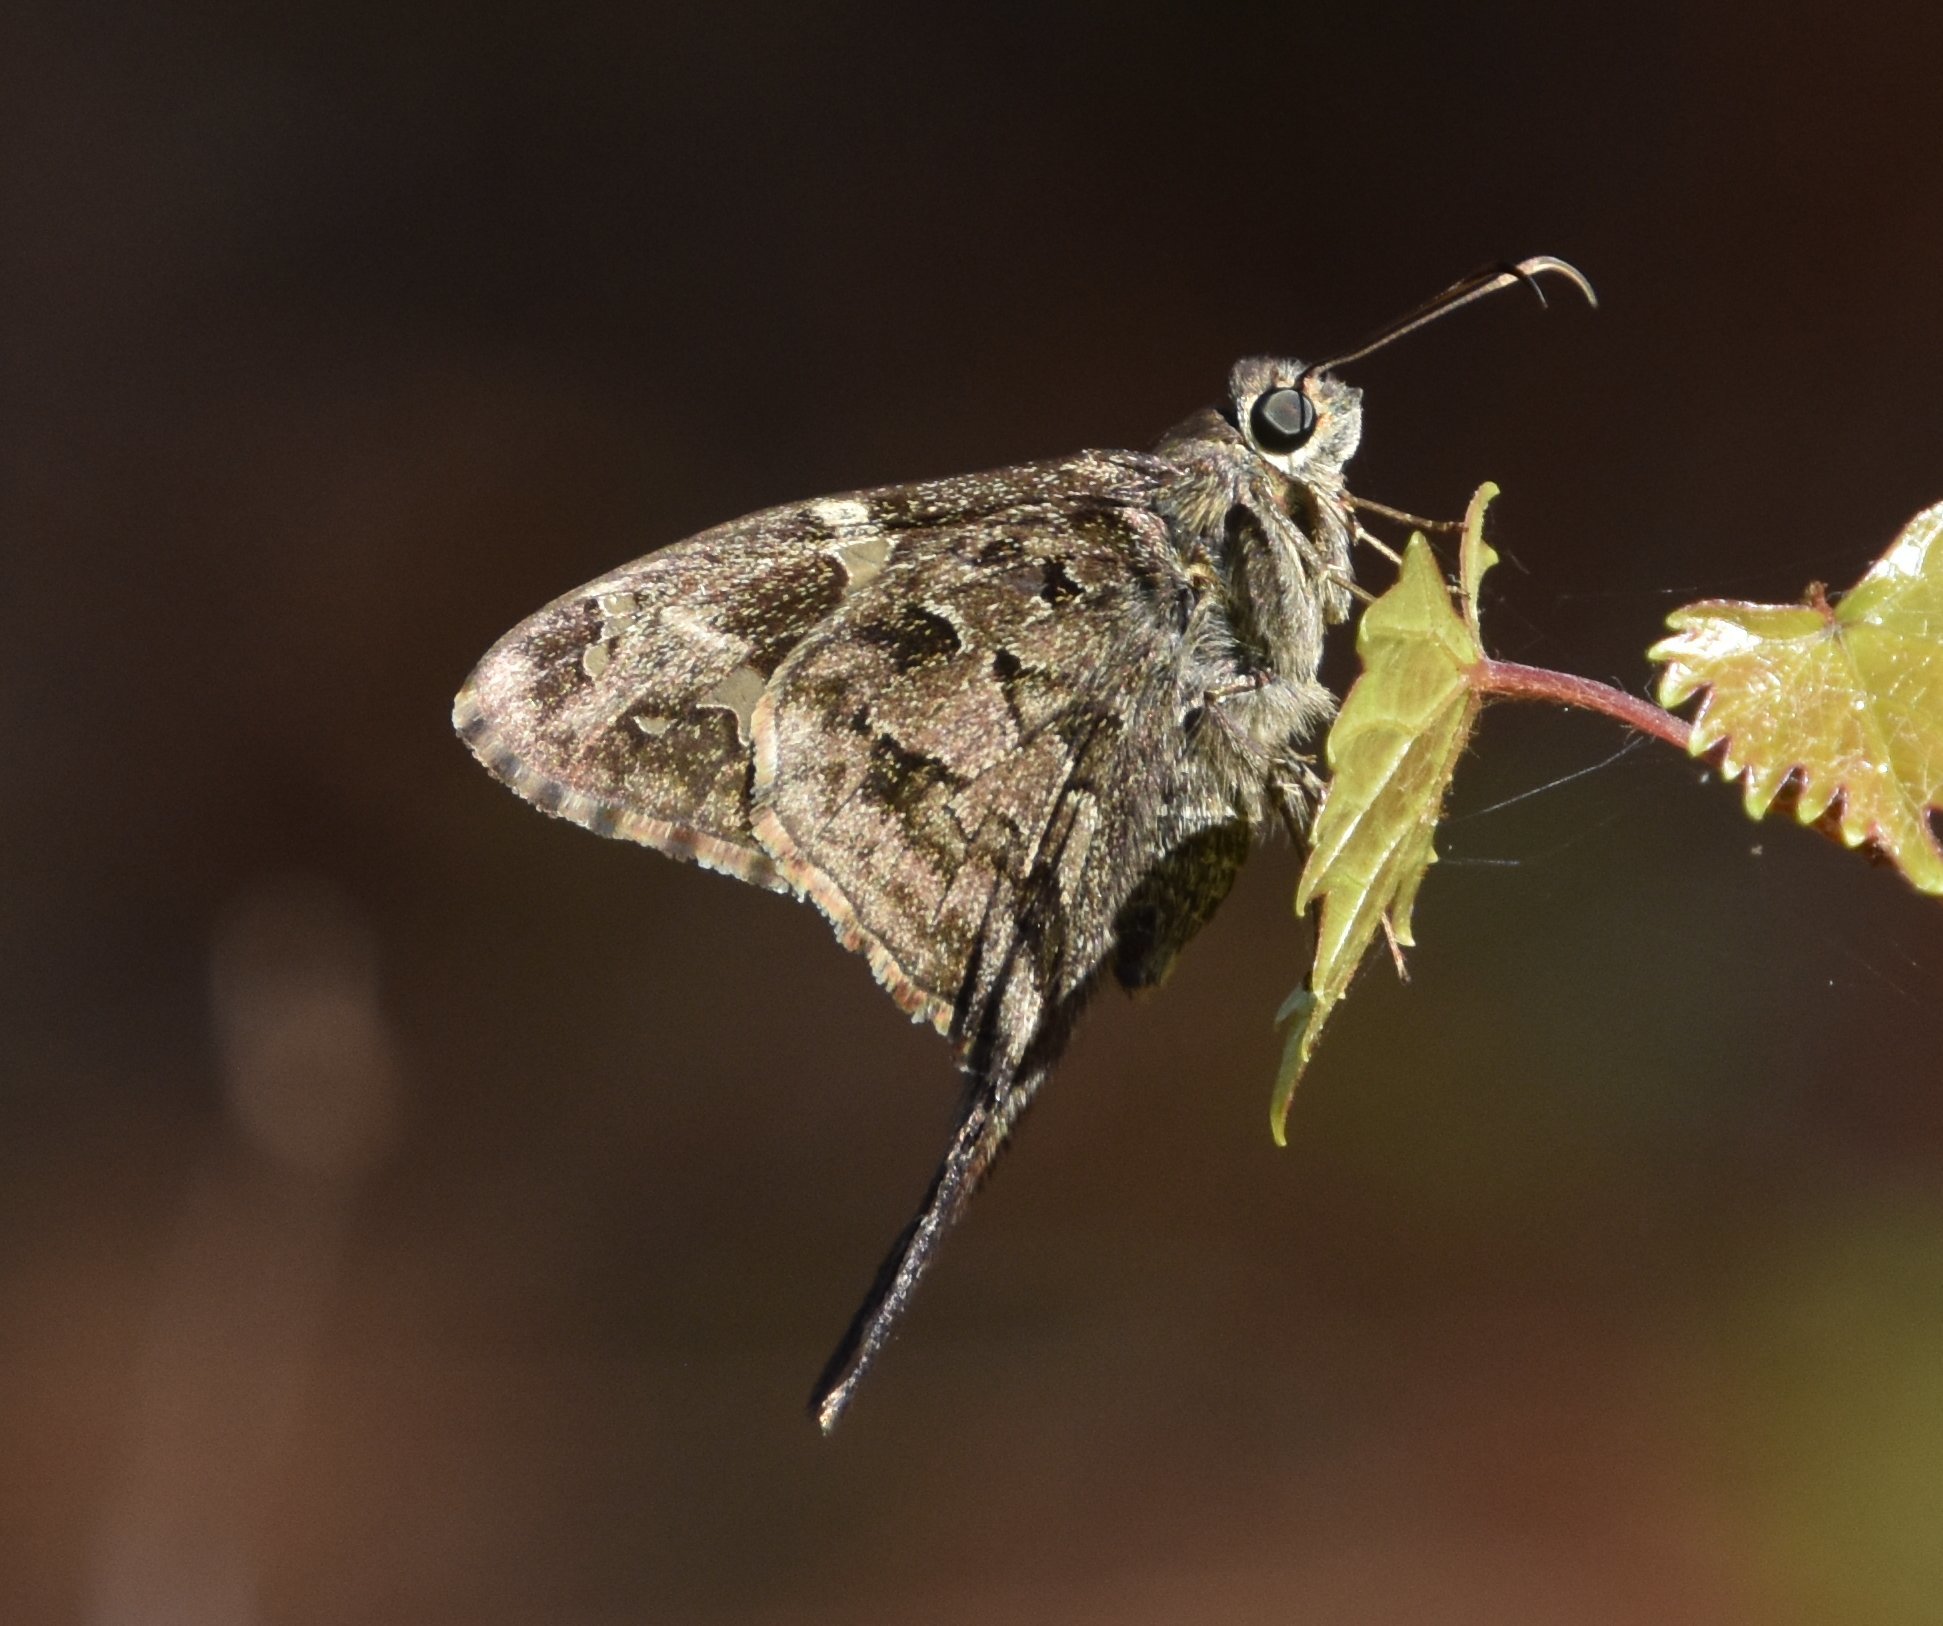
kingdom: Animalia
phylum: Arthropoda
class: Insecta
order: Lepidoptera
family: Hesperiidae
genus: Thorybes
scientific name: Thorybes
